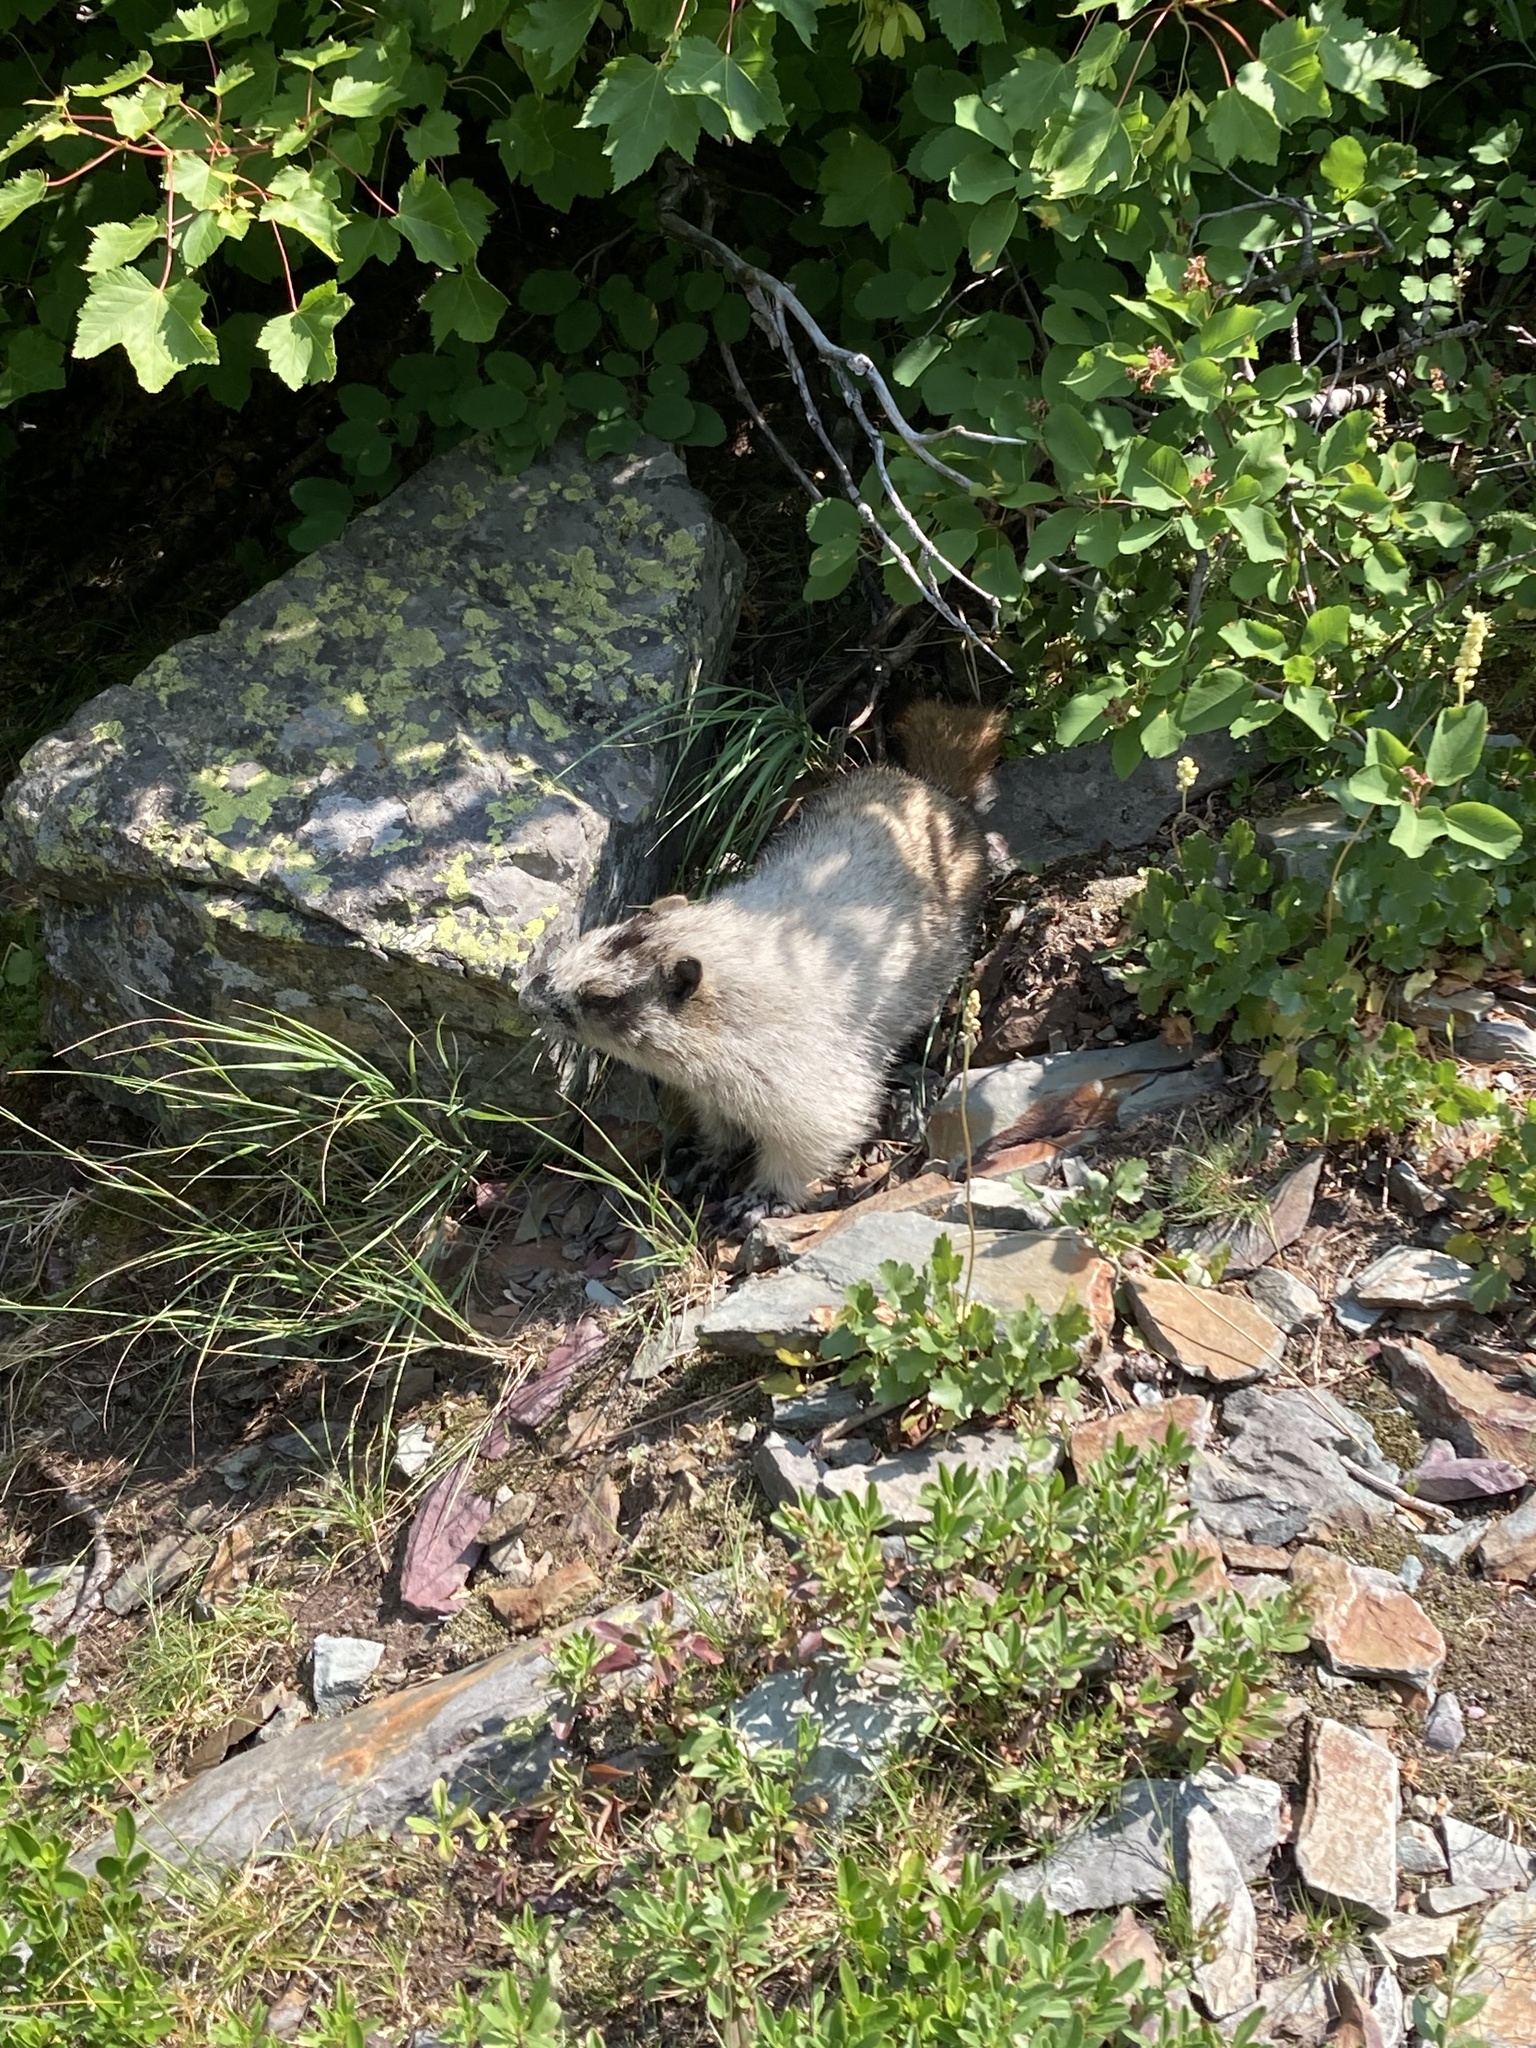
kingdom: Animalia
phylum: Chordata
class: Mammalia
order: Rodentia
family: Sciuridae
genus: Marmota
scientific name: Marmota caligata
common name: Hoary marmot
